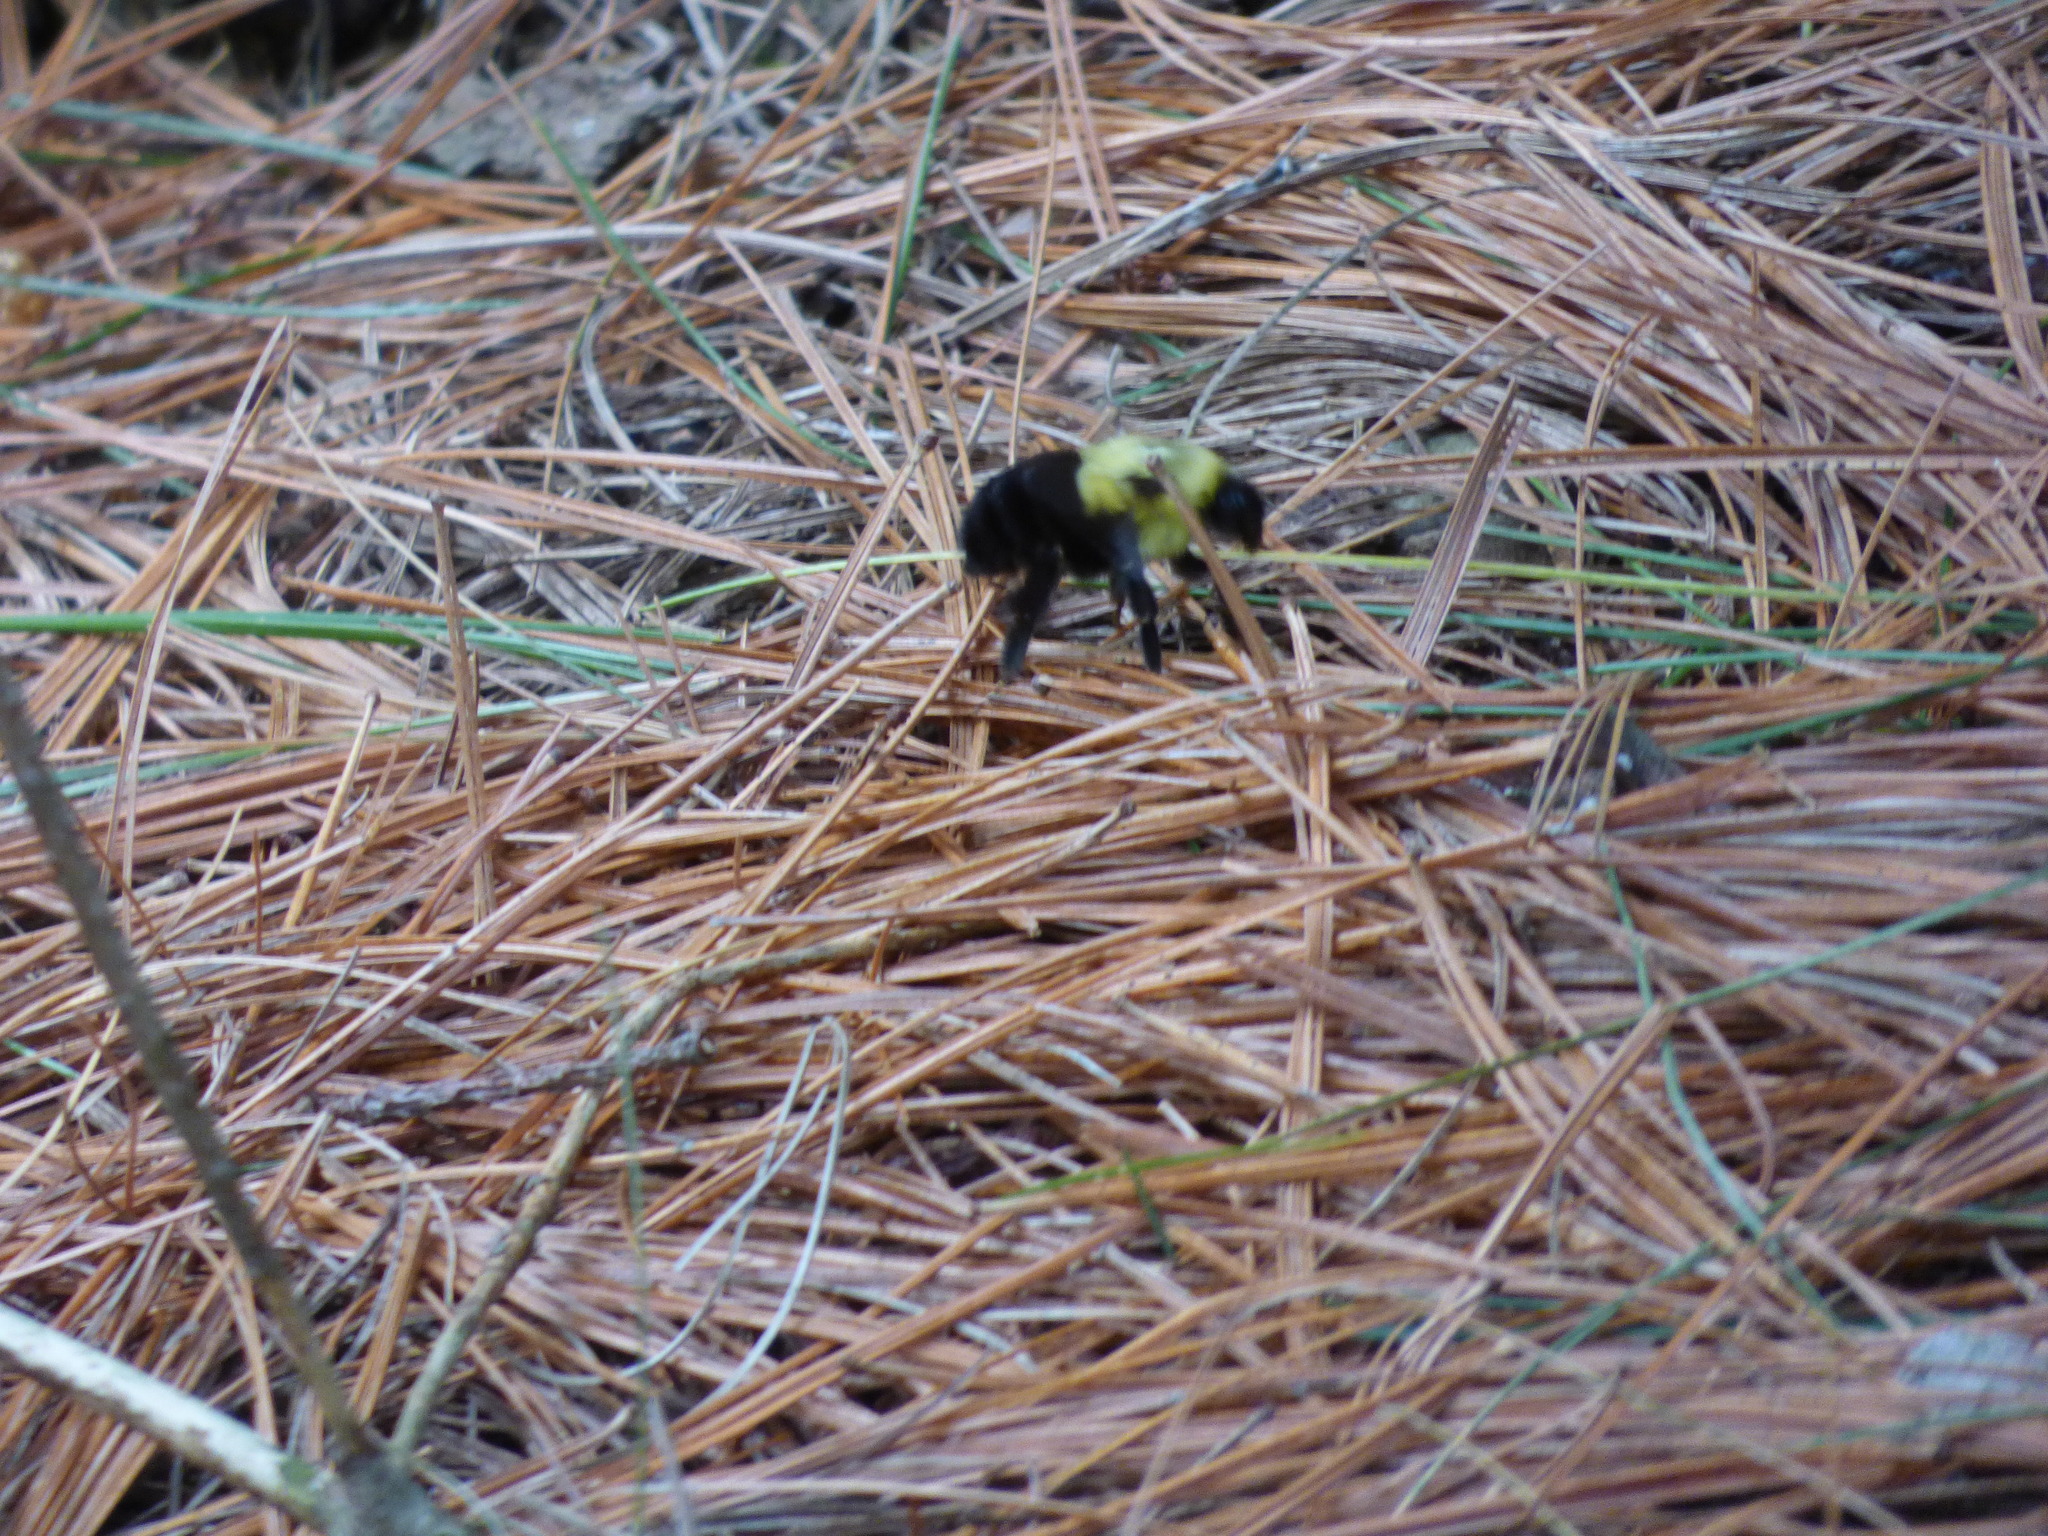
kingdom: Animalia
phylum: Arthropoda
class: Insecta
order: Hymenoptera
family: Apidae
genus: Bombus
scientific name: Bombus impatiens
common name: Common eastern bumble bee
